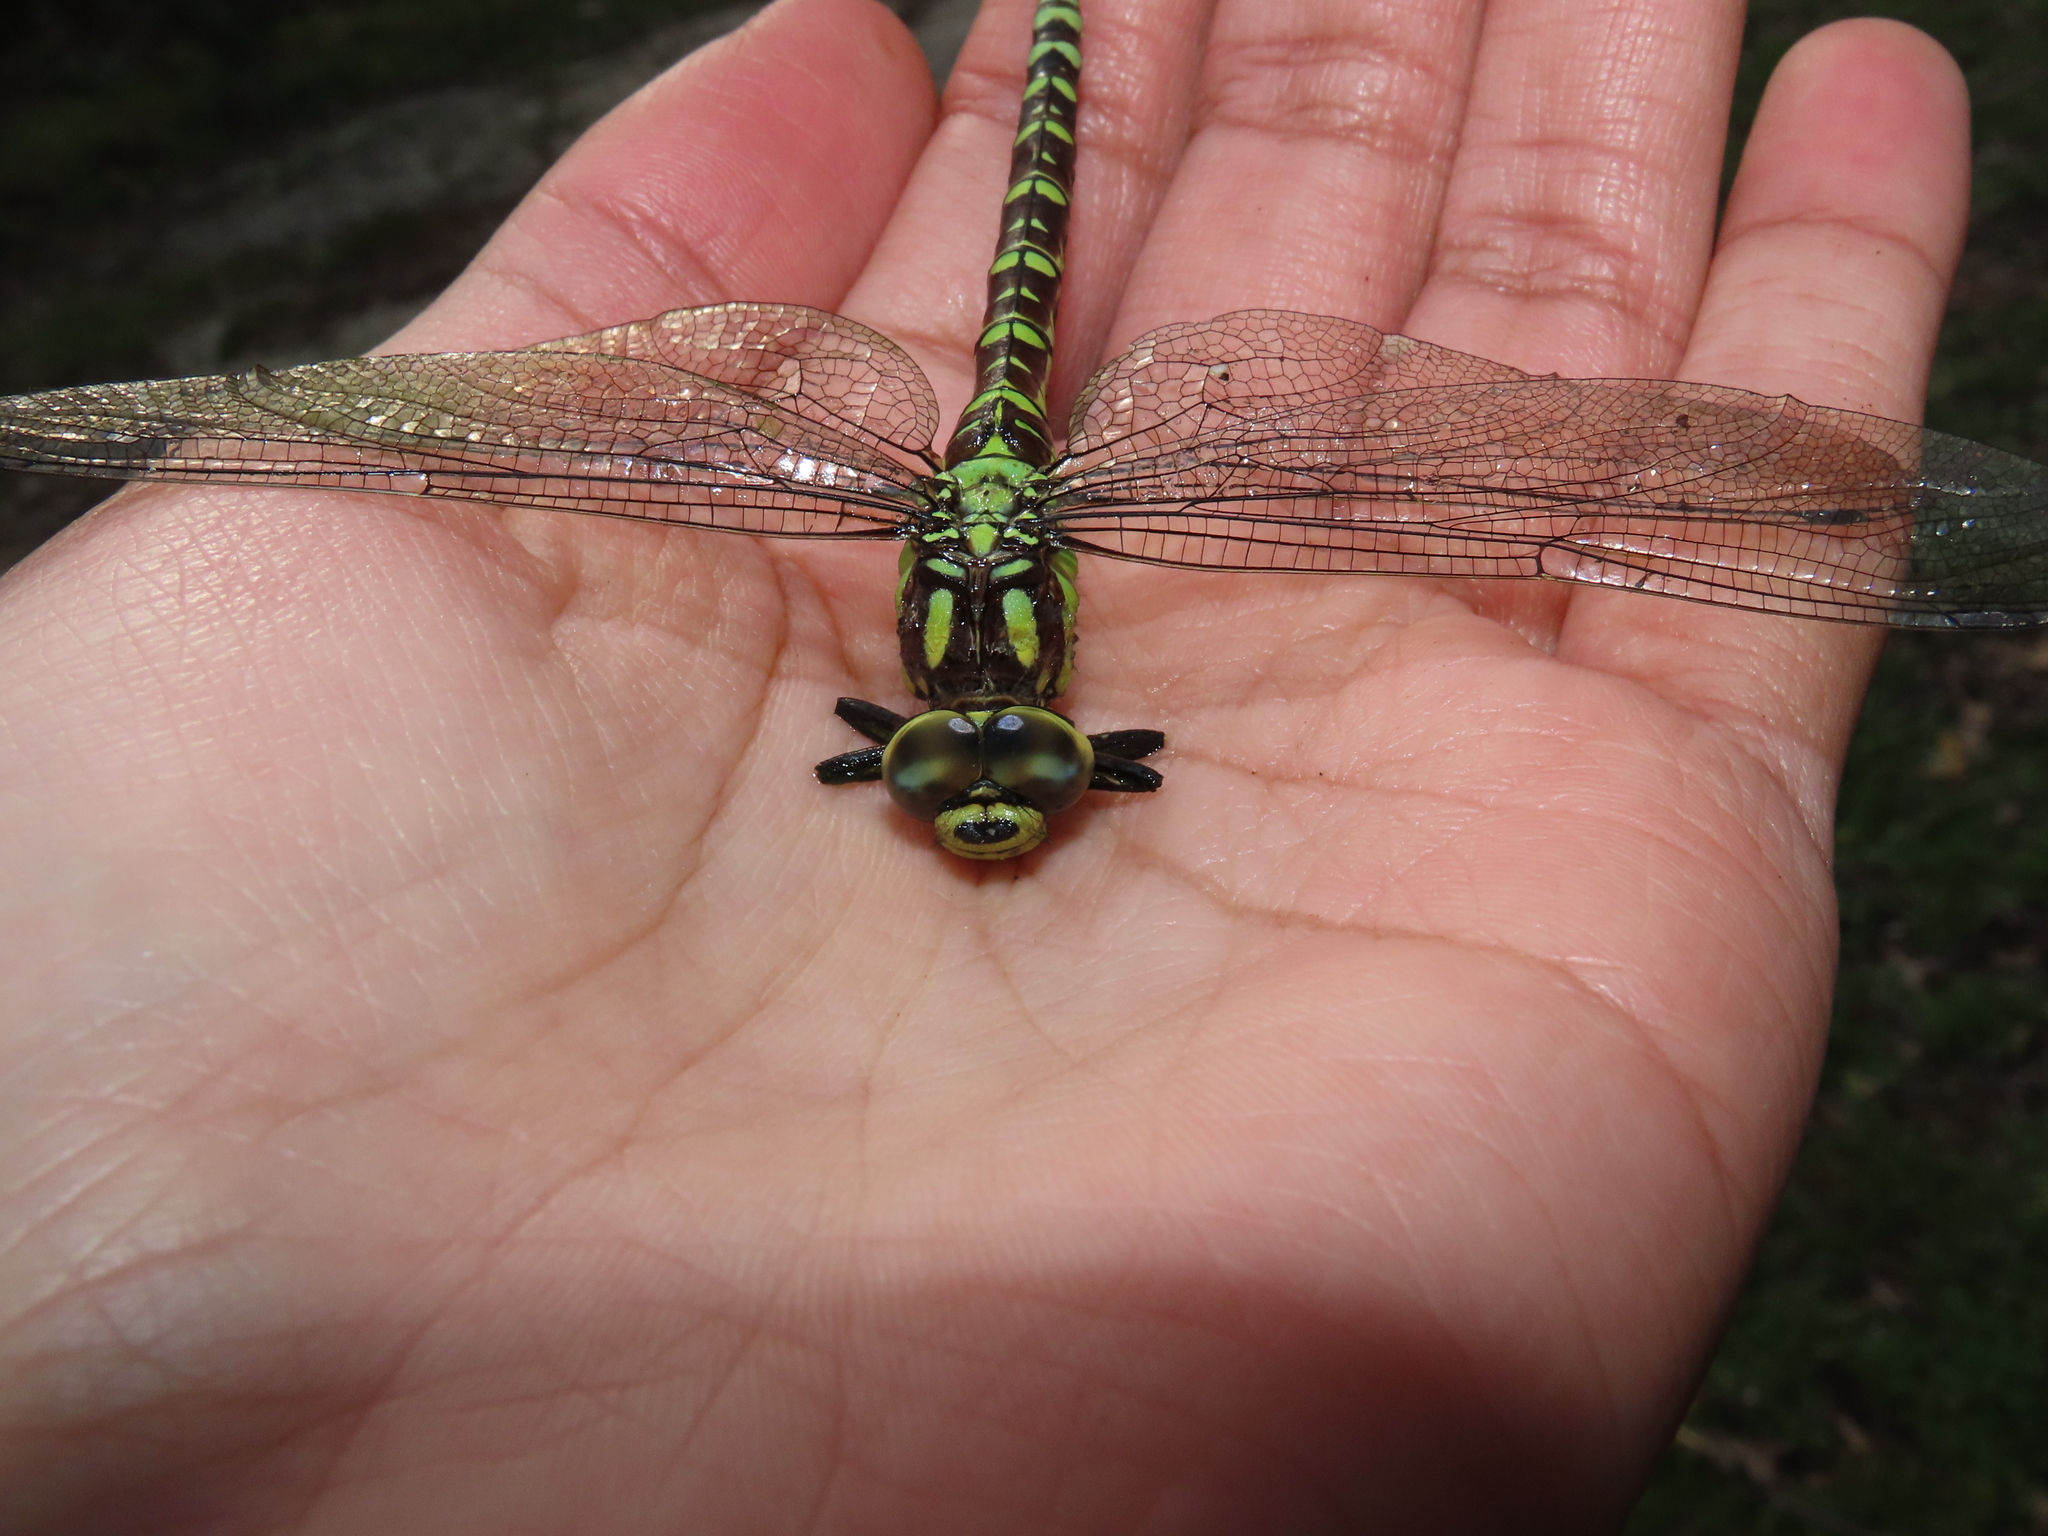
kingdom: Animalia
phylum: Arthropoda
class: Insecta
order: Odonata
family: Aeshnidae
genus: Aeshna
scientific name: Aeshna cyanea
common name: Southern hawker
